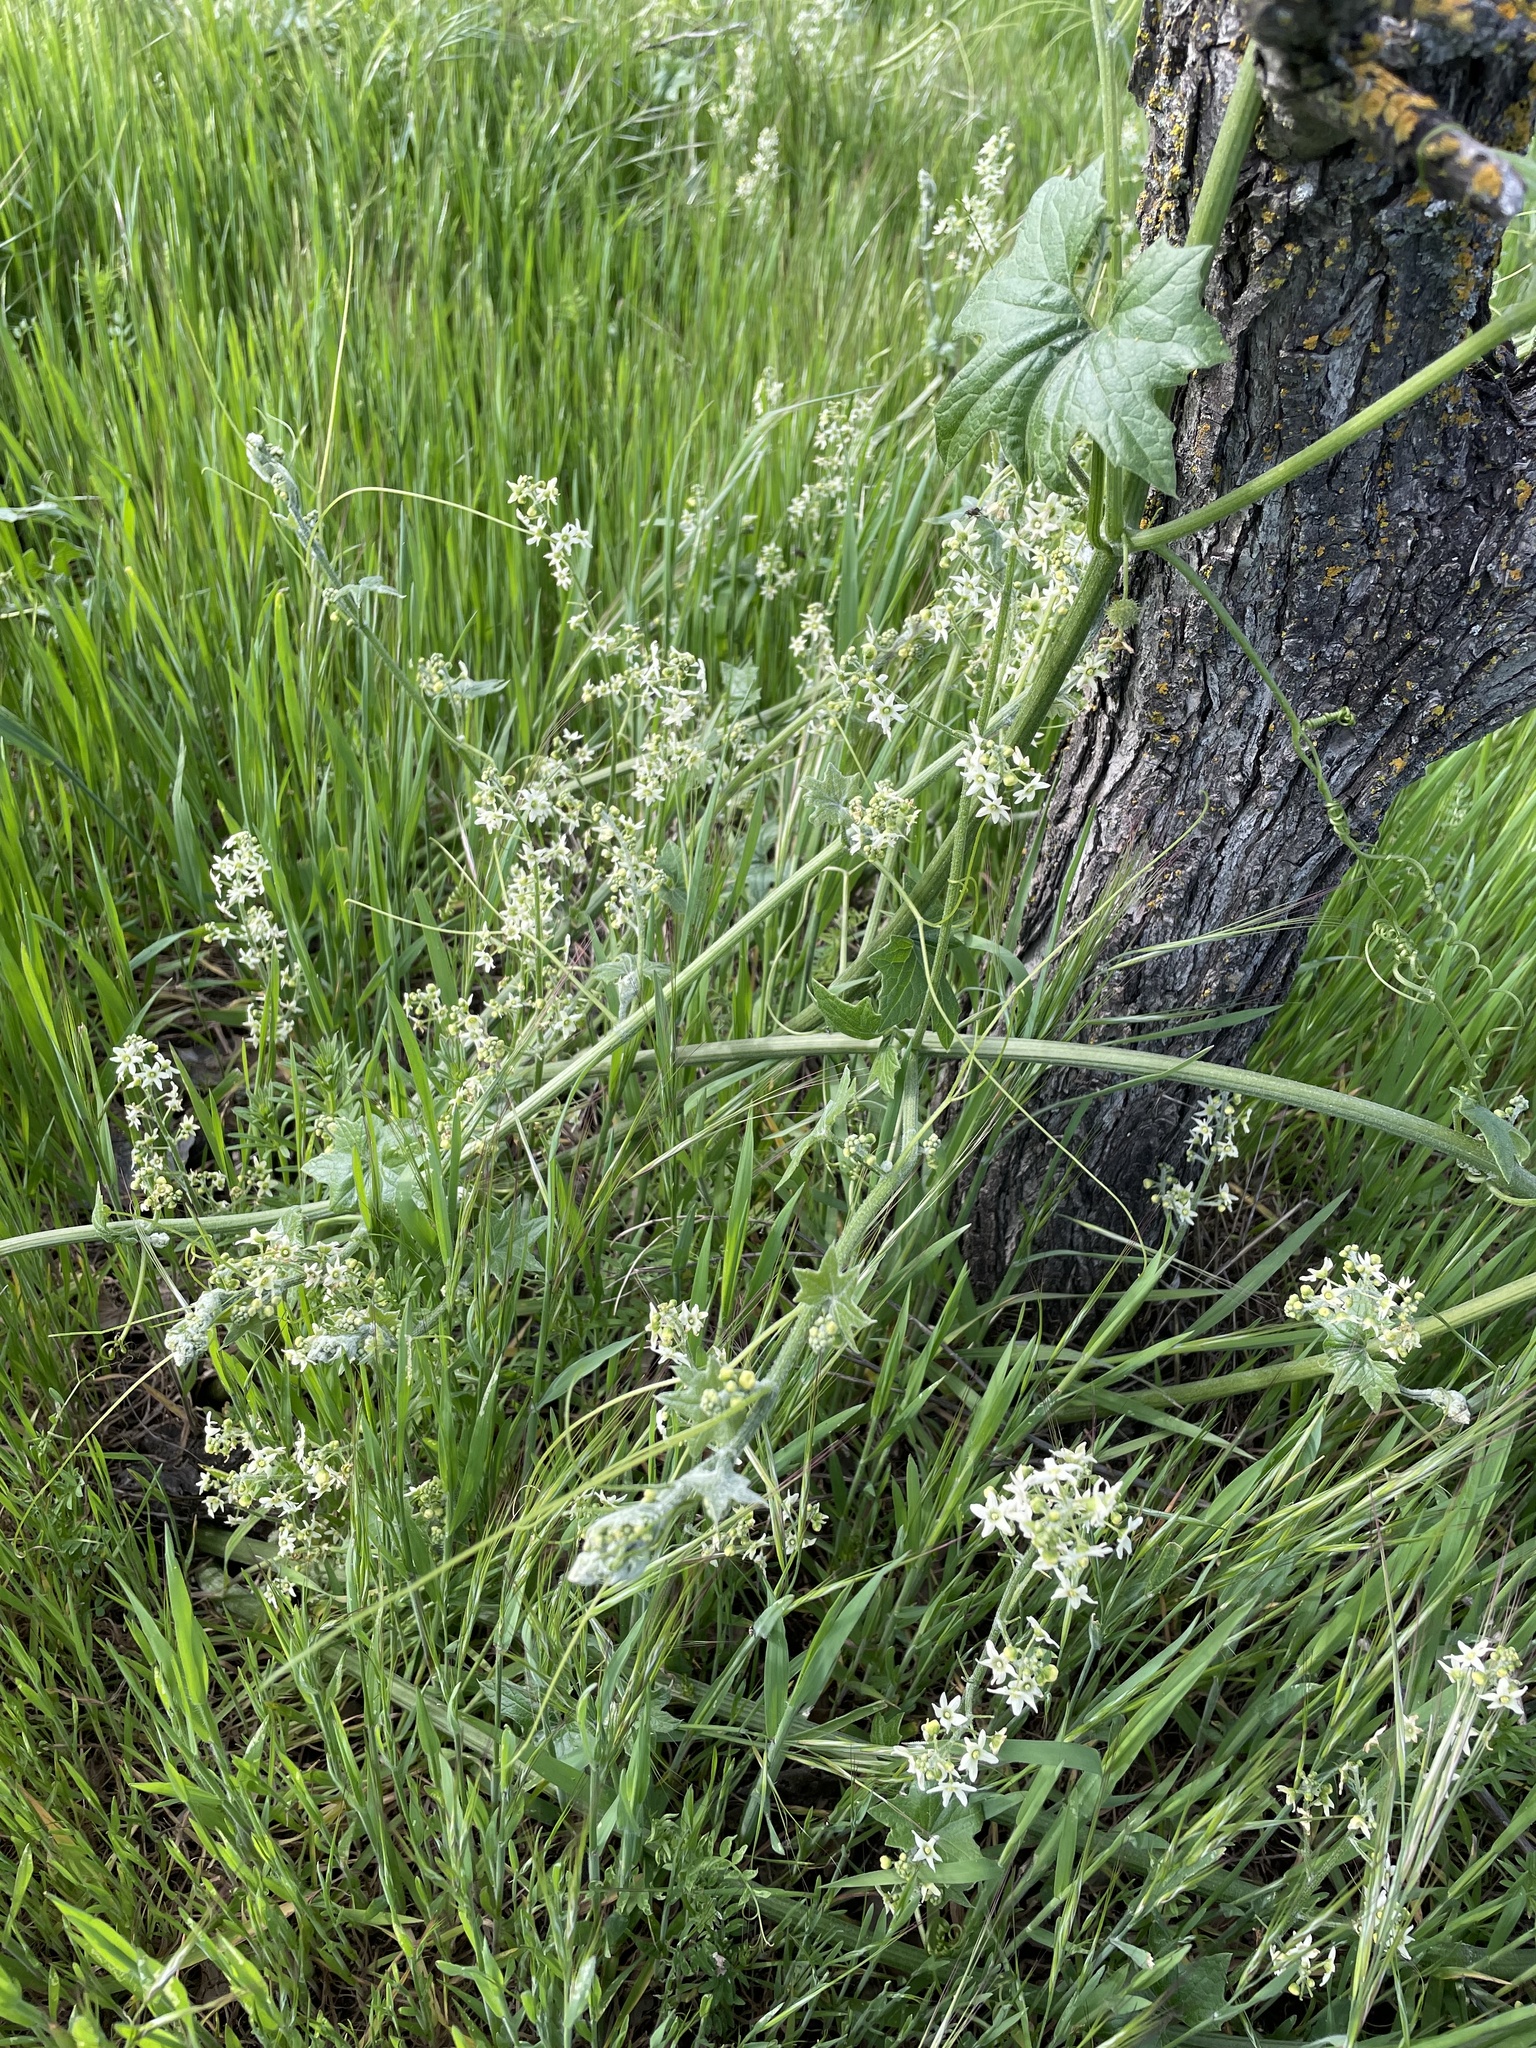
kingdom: Plantae
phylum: Tracheophyta
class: Magnoliopsida
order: Cucurbitales
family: Cucurbitaceae
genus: Marah
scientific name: Marah fabacea
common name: California manroot
